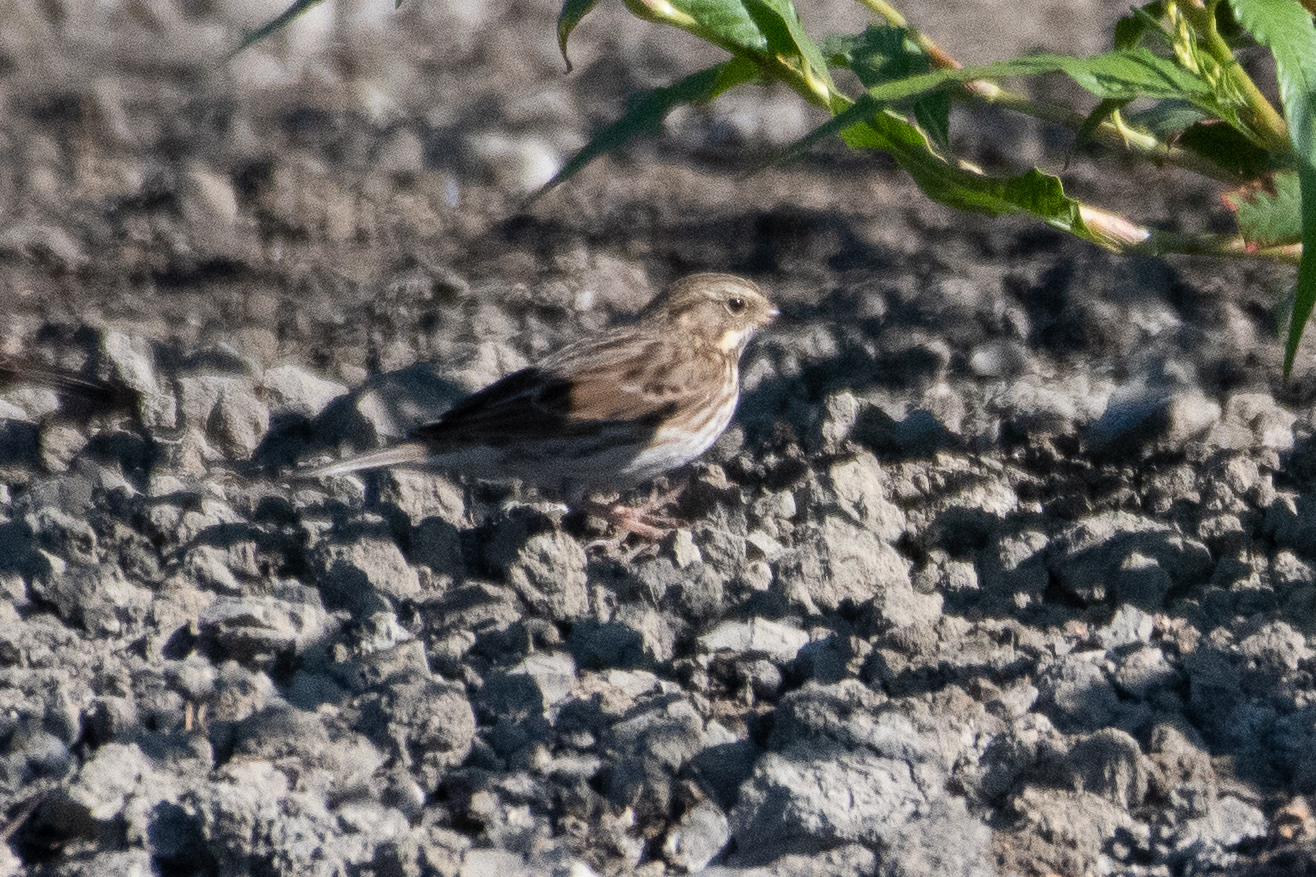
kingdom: Animalia
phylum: Chordata
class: Aves
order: Passeriformes
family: Passerellidae
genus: Passerculus
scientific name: Passerculus sandwichensis
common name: Savannah sparrow
